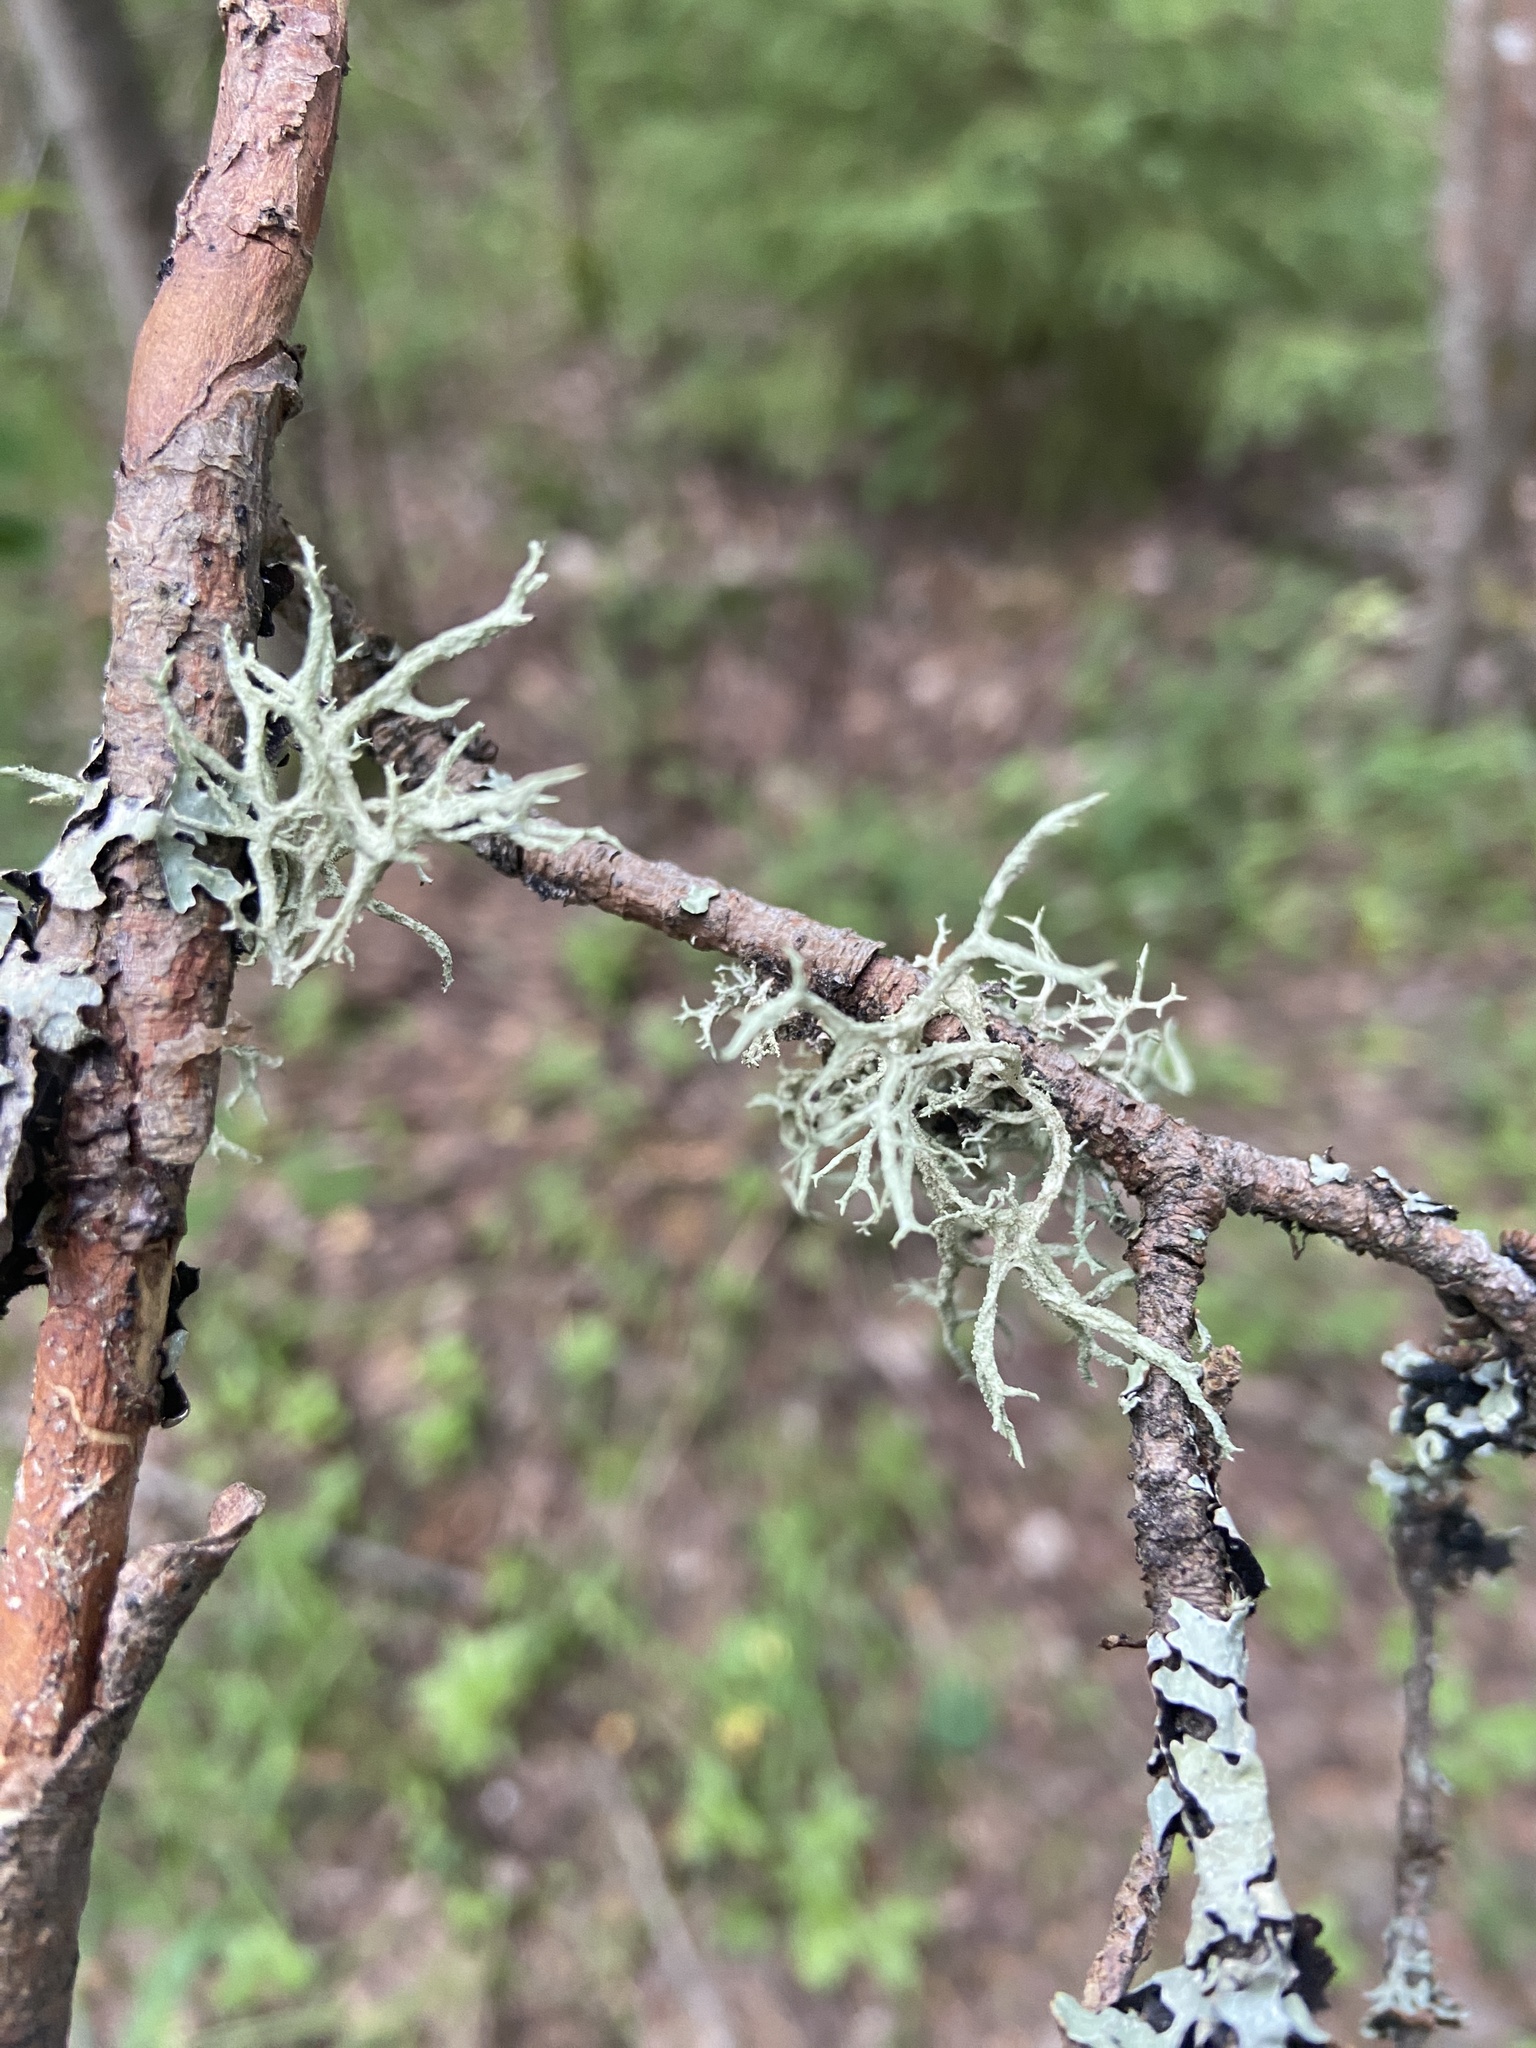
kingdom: Fungi
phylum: Ascomycota
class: Lecanoromycetes
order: Lecanorales
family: Parmeliaceae
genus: Evernia
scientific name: Evernia mesomorpha
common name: Boreal oak moss lichen
